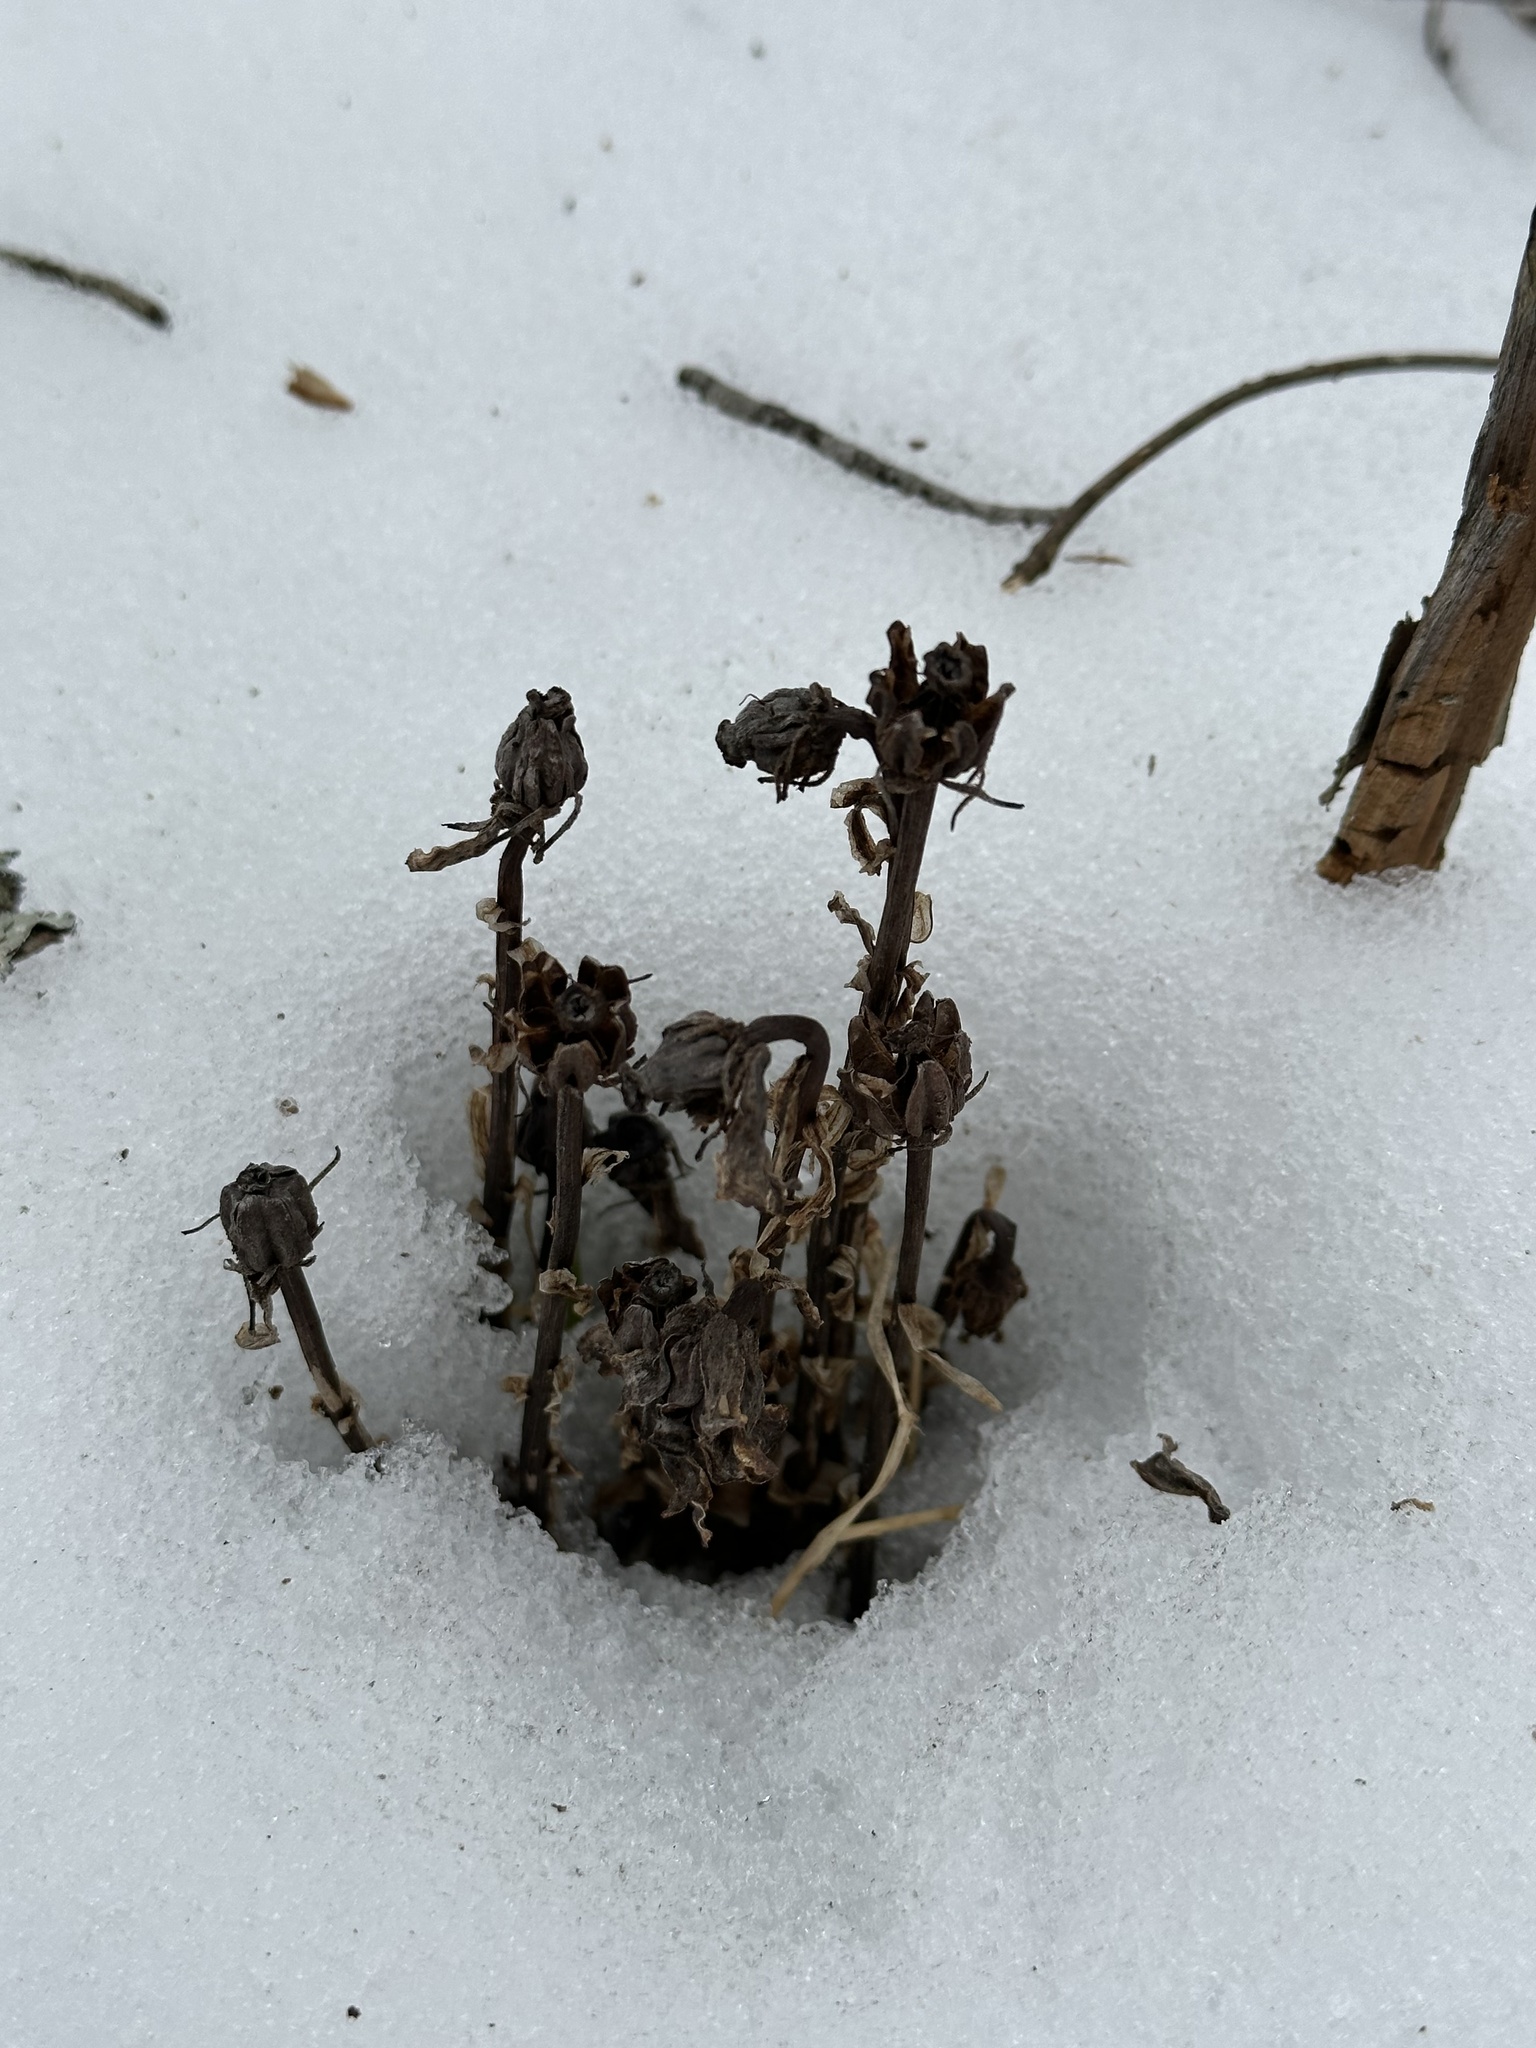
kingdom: Plantae
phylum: Tracheophyta
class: Magnoliopsida
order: Ericales
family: Ericaceae
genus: Monotropa
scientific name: Monotropa uniflora
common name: Convulsion root
